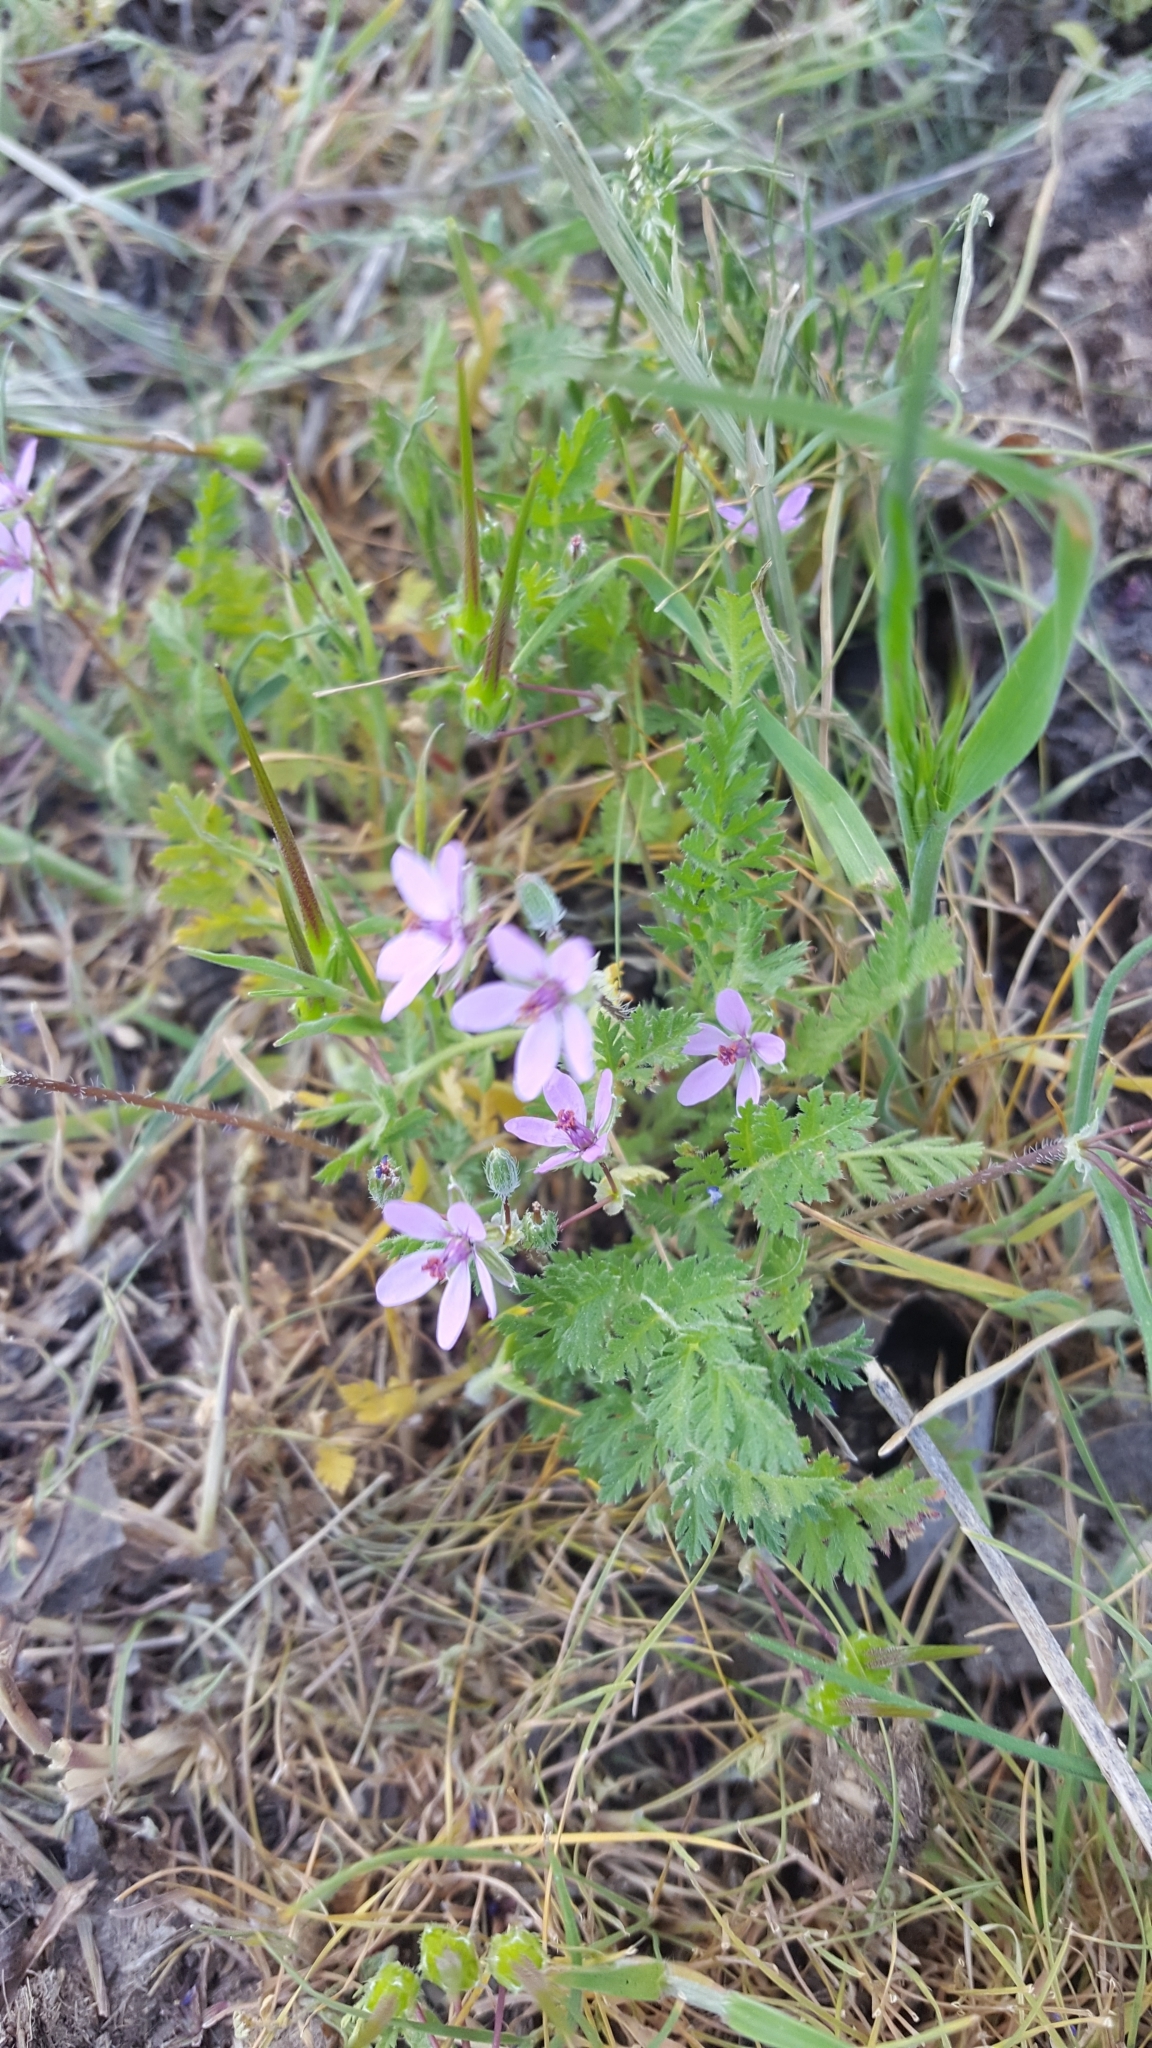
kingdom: Plantae
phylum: Tracheophyta
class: Magnoliopsida
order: Geraniales
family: Geraniaceae
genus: Erodium
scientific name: Erodium cicutarium
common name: Common stork's-bill
